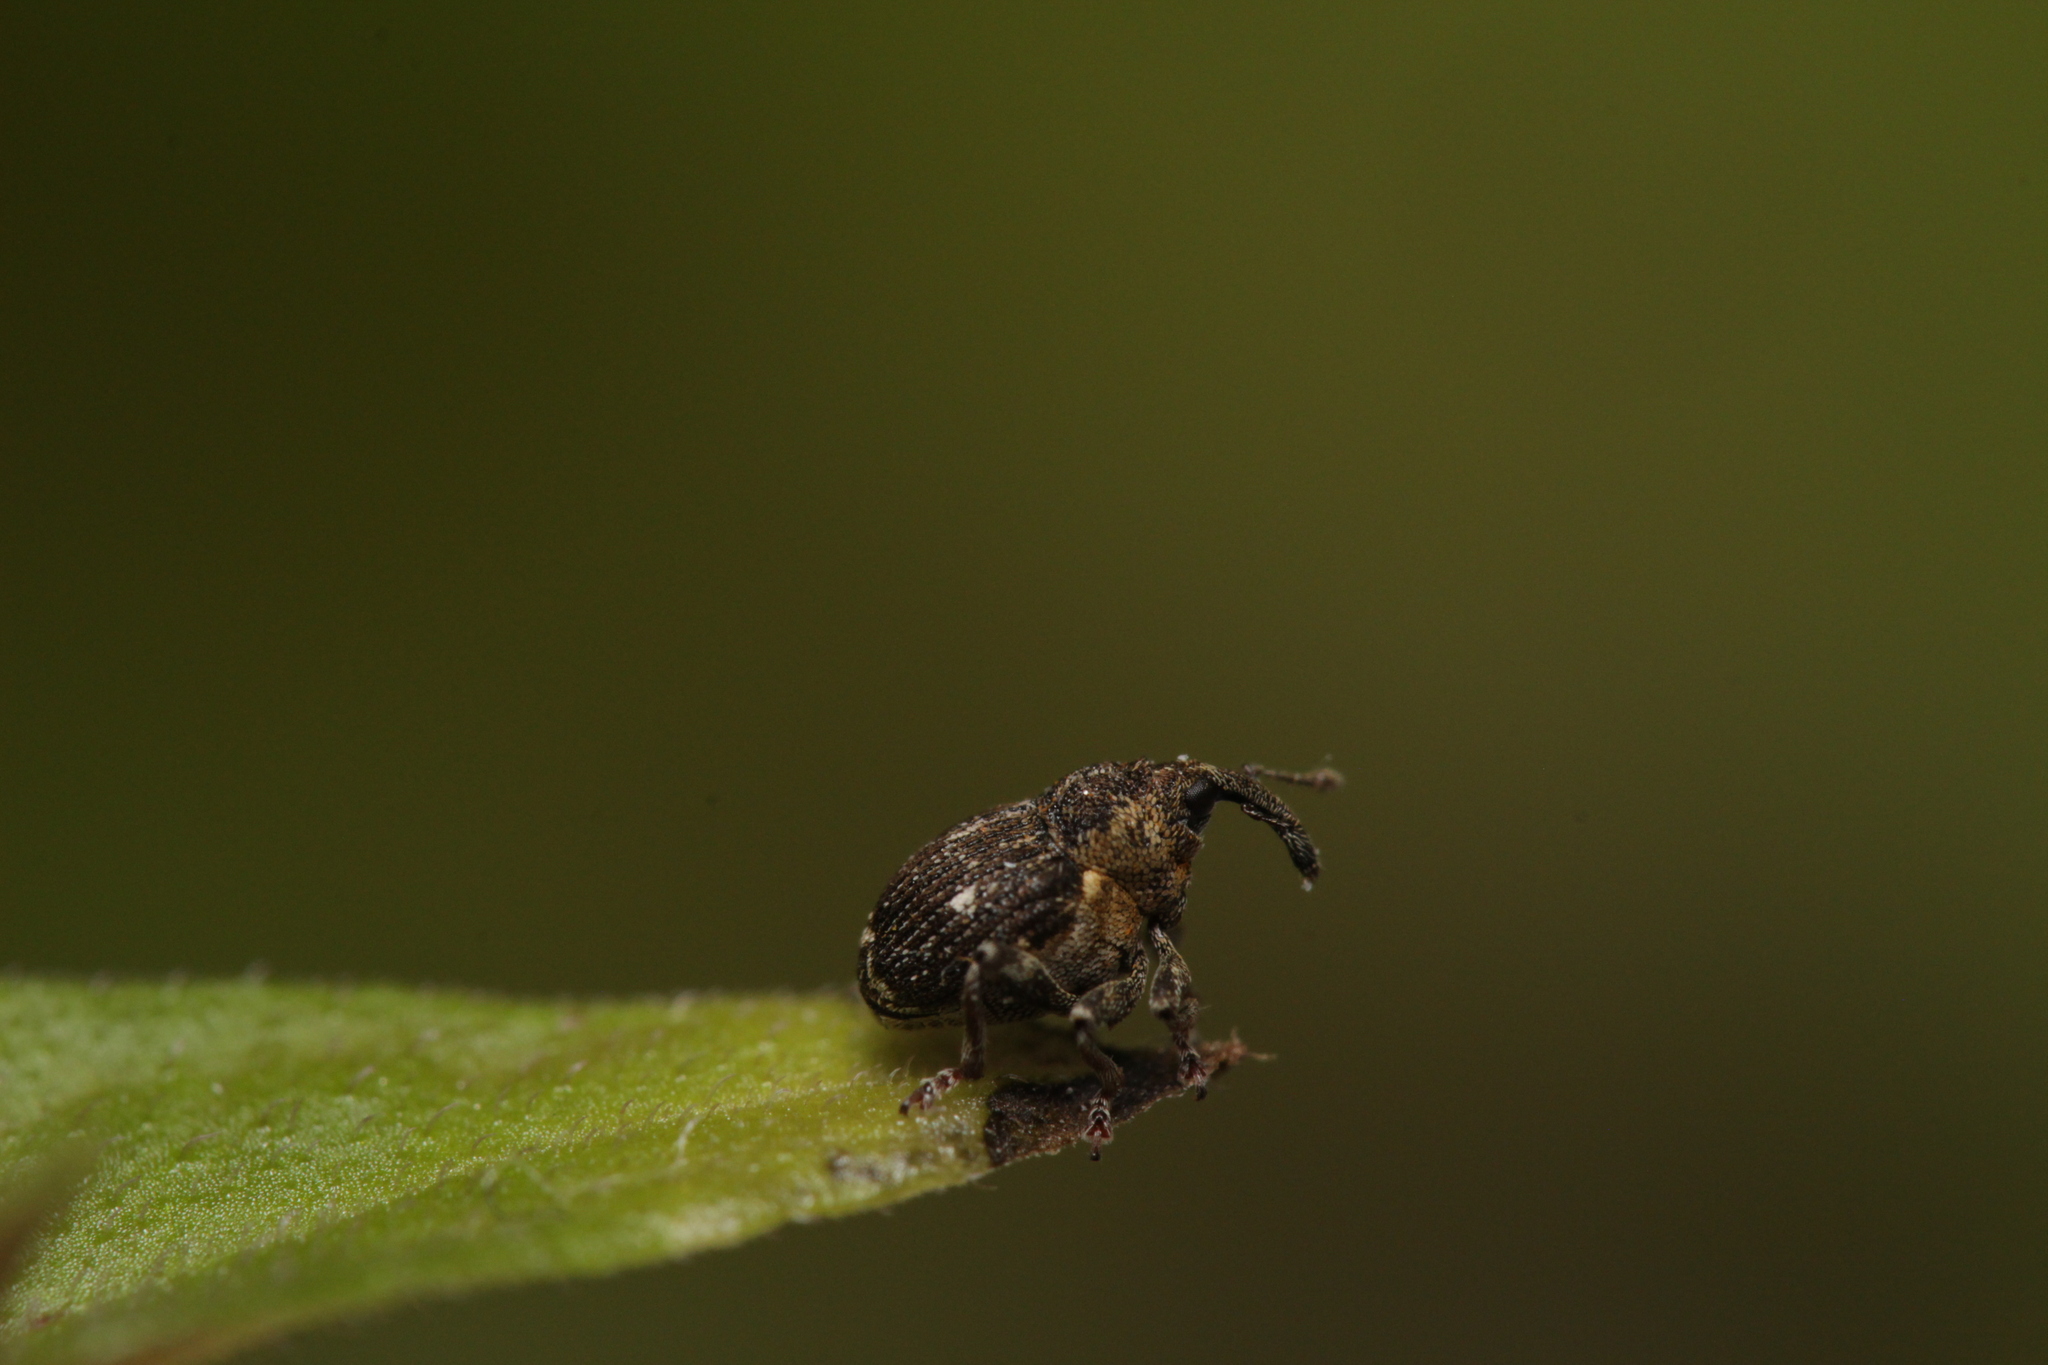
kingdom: Animalia
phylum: Arthropoda
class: Insecta
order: Coleoptera
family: Curculionidae
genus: Nedyus
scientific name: Nedyus quadrimaculatus
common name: Small nettle weevil
